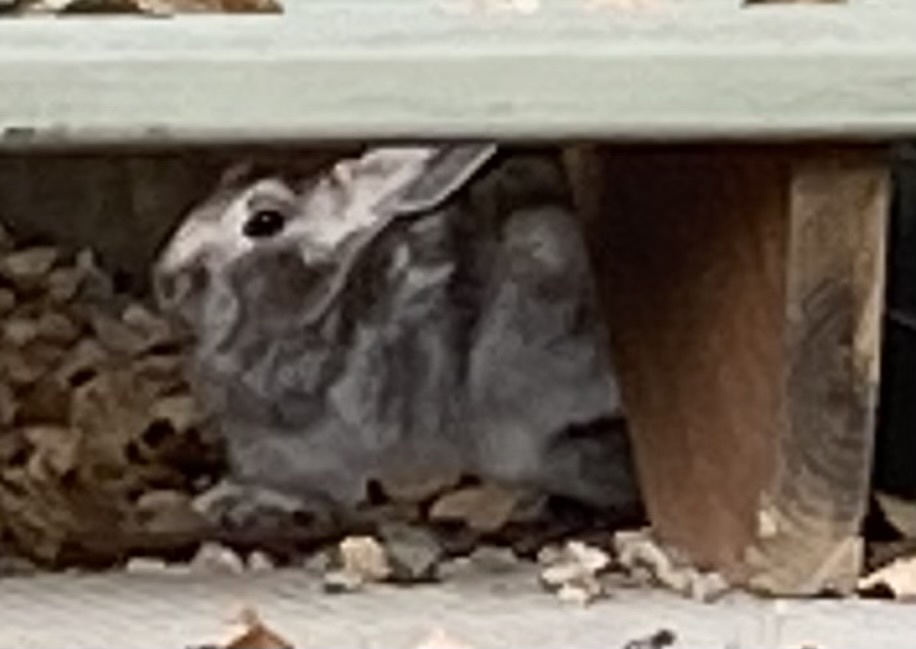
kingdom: Animalia
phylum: Chordata
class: Mammalia
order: Lagomorpha
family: Leporidae
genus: Lepus
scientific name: Lepus americanus
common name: Snowshoe hare
